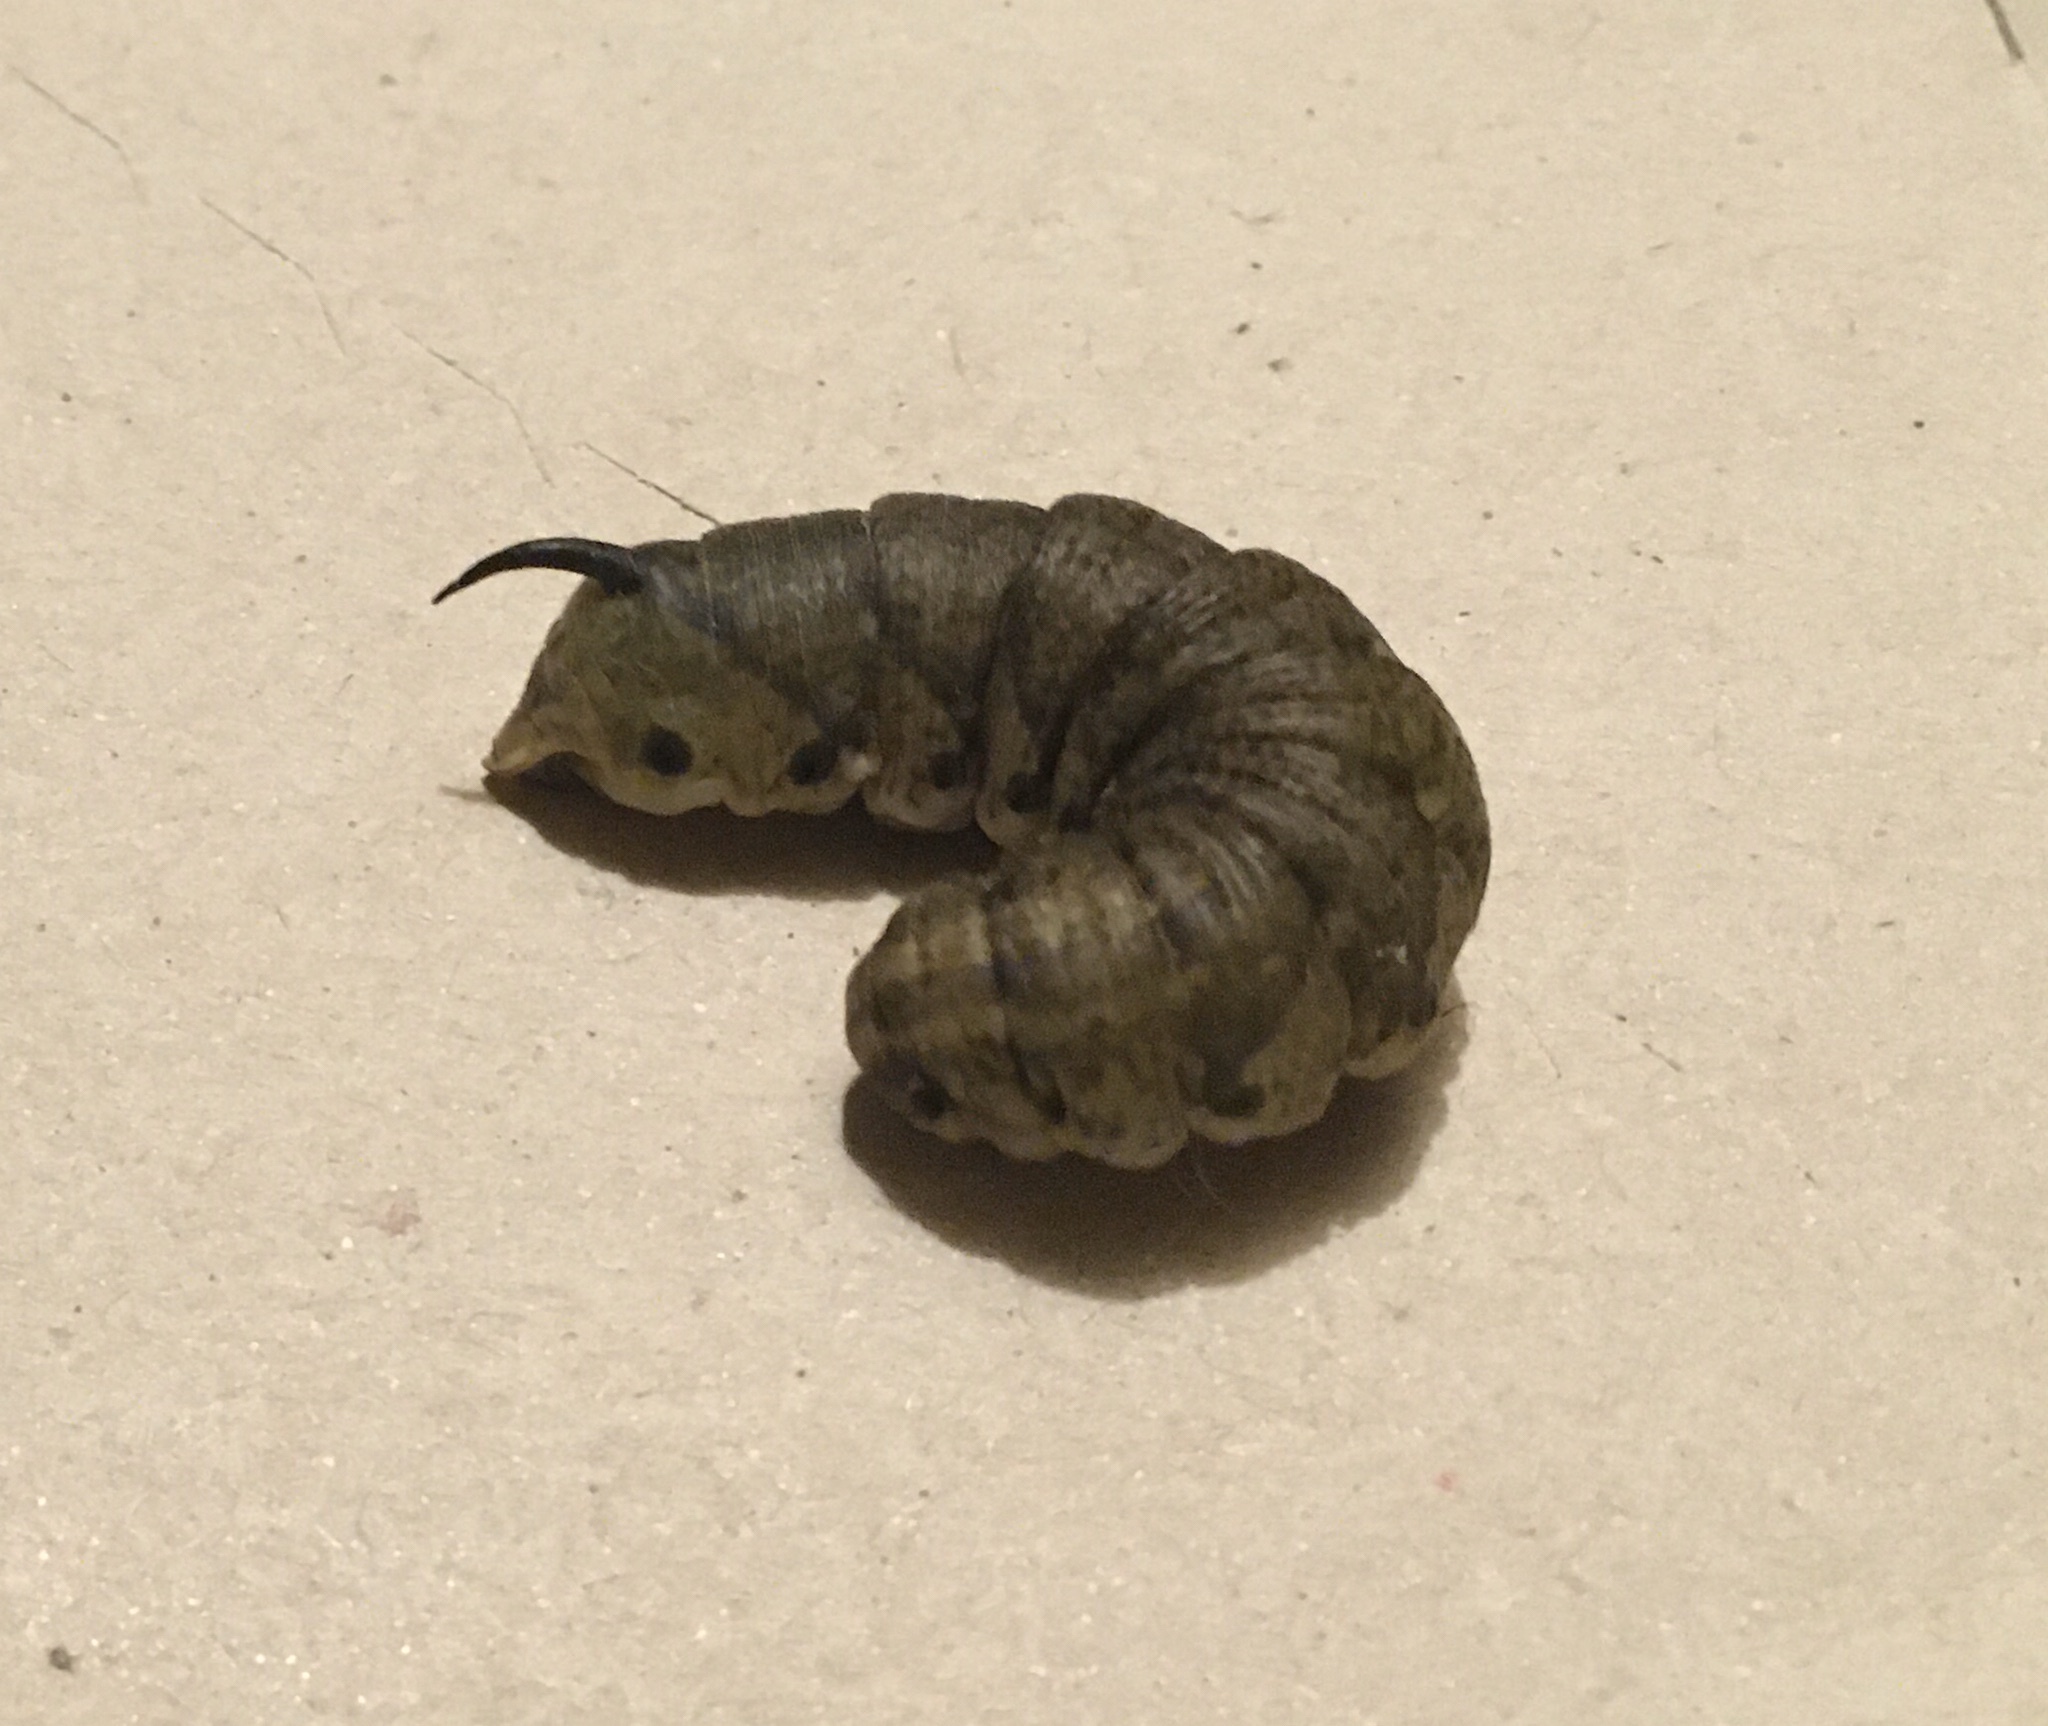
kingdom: Animalia
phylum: Arthropoda
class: Insecta
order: Lepidoptera
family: Sphingidae
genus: Agrius
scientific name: Agrius convolvuli
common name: Convolvulus hawkmoth
